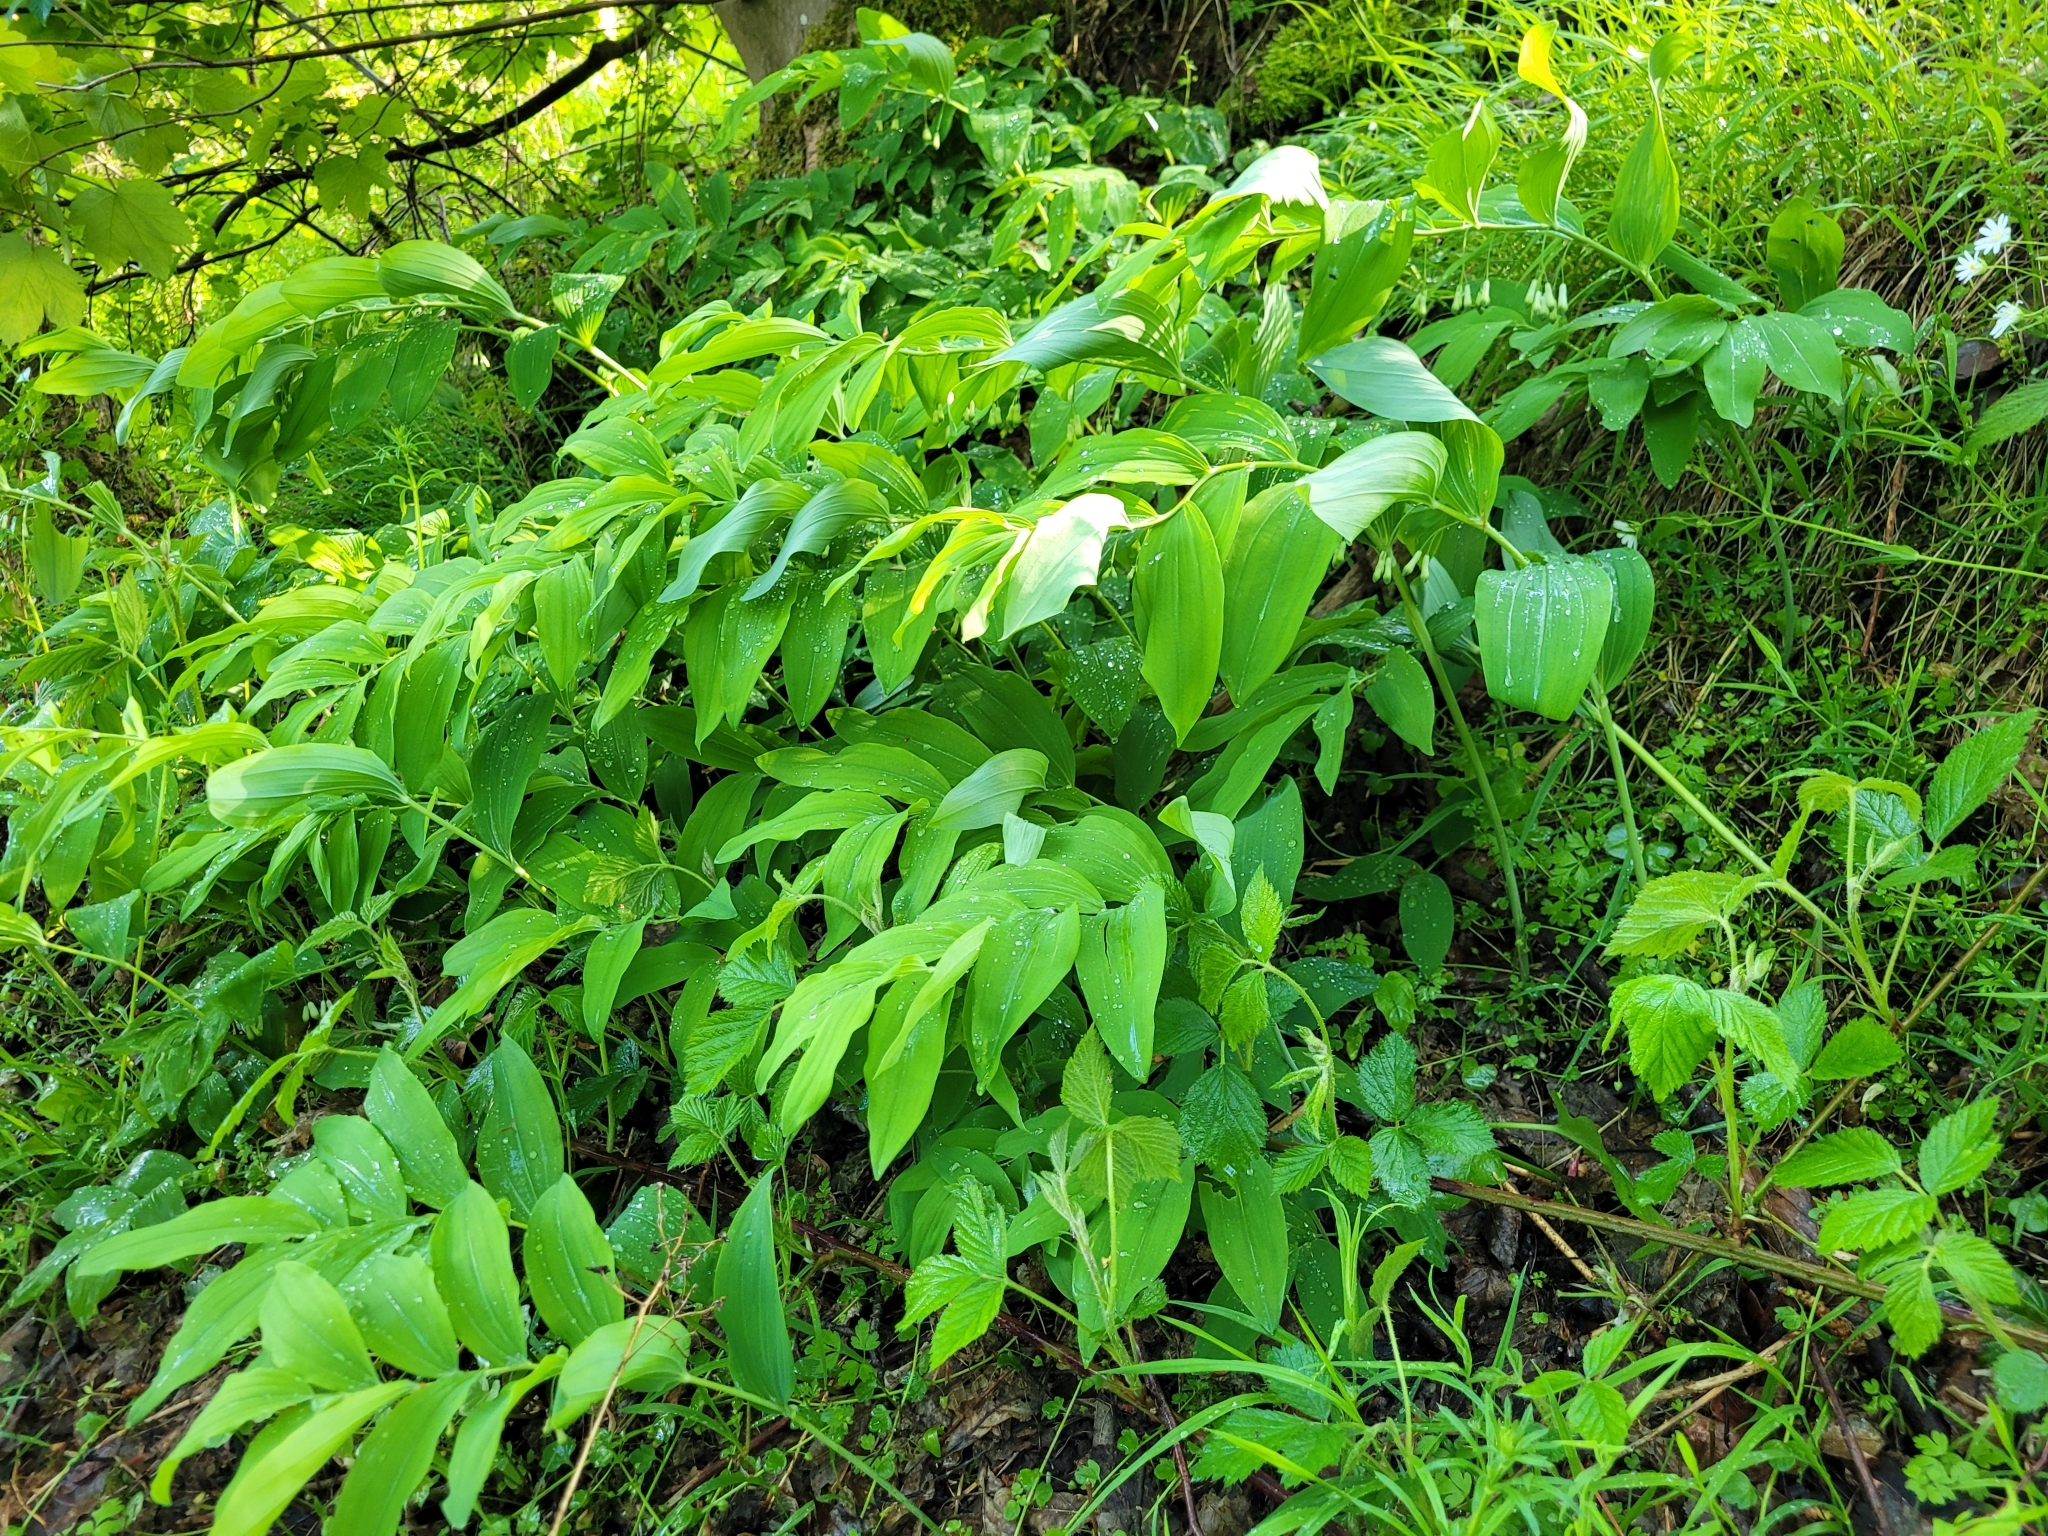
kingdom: Plantae
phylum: Tracheophyta
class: Liliopsida
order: Asparagales
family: Asparagaceae
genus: Polygonatum
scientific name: Polygonatum multiflorum
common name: Solomon's-seal
